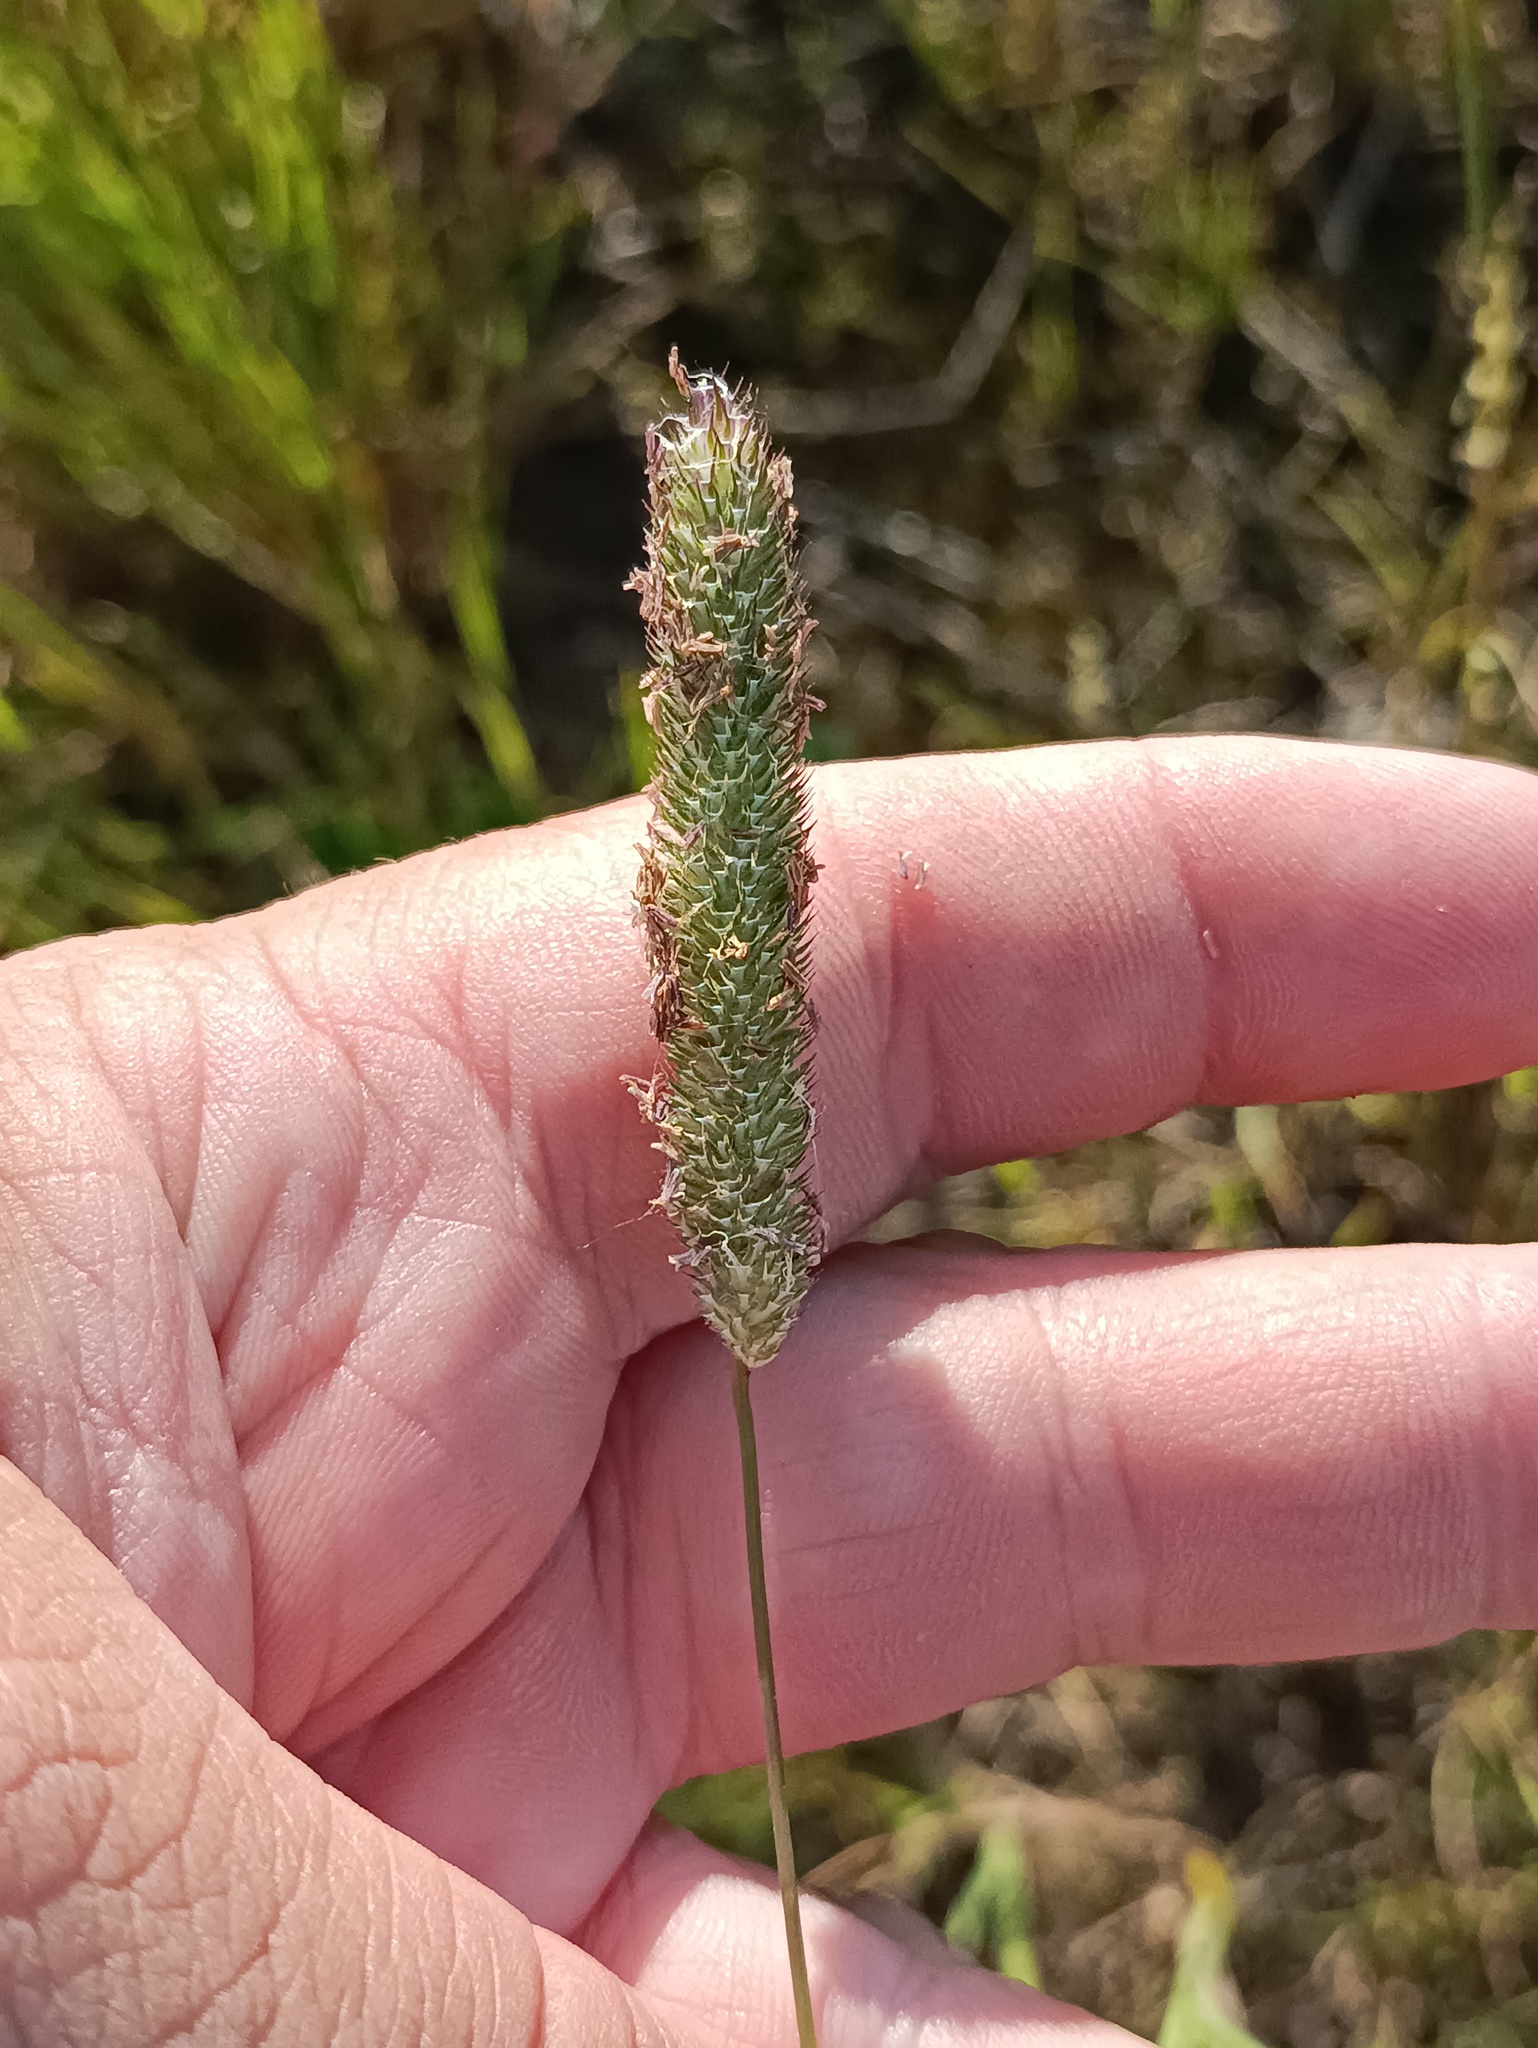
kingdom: Plantae
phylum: Tracheophyta
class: Liliopsida
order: Poales
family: Poaceae
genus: Phleum
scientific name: Phleum pratense
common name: Timothy grass
